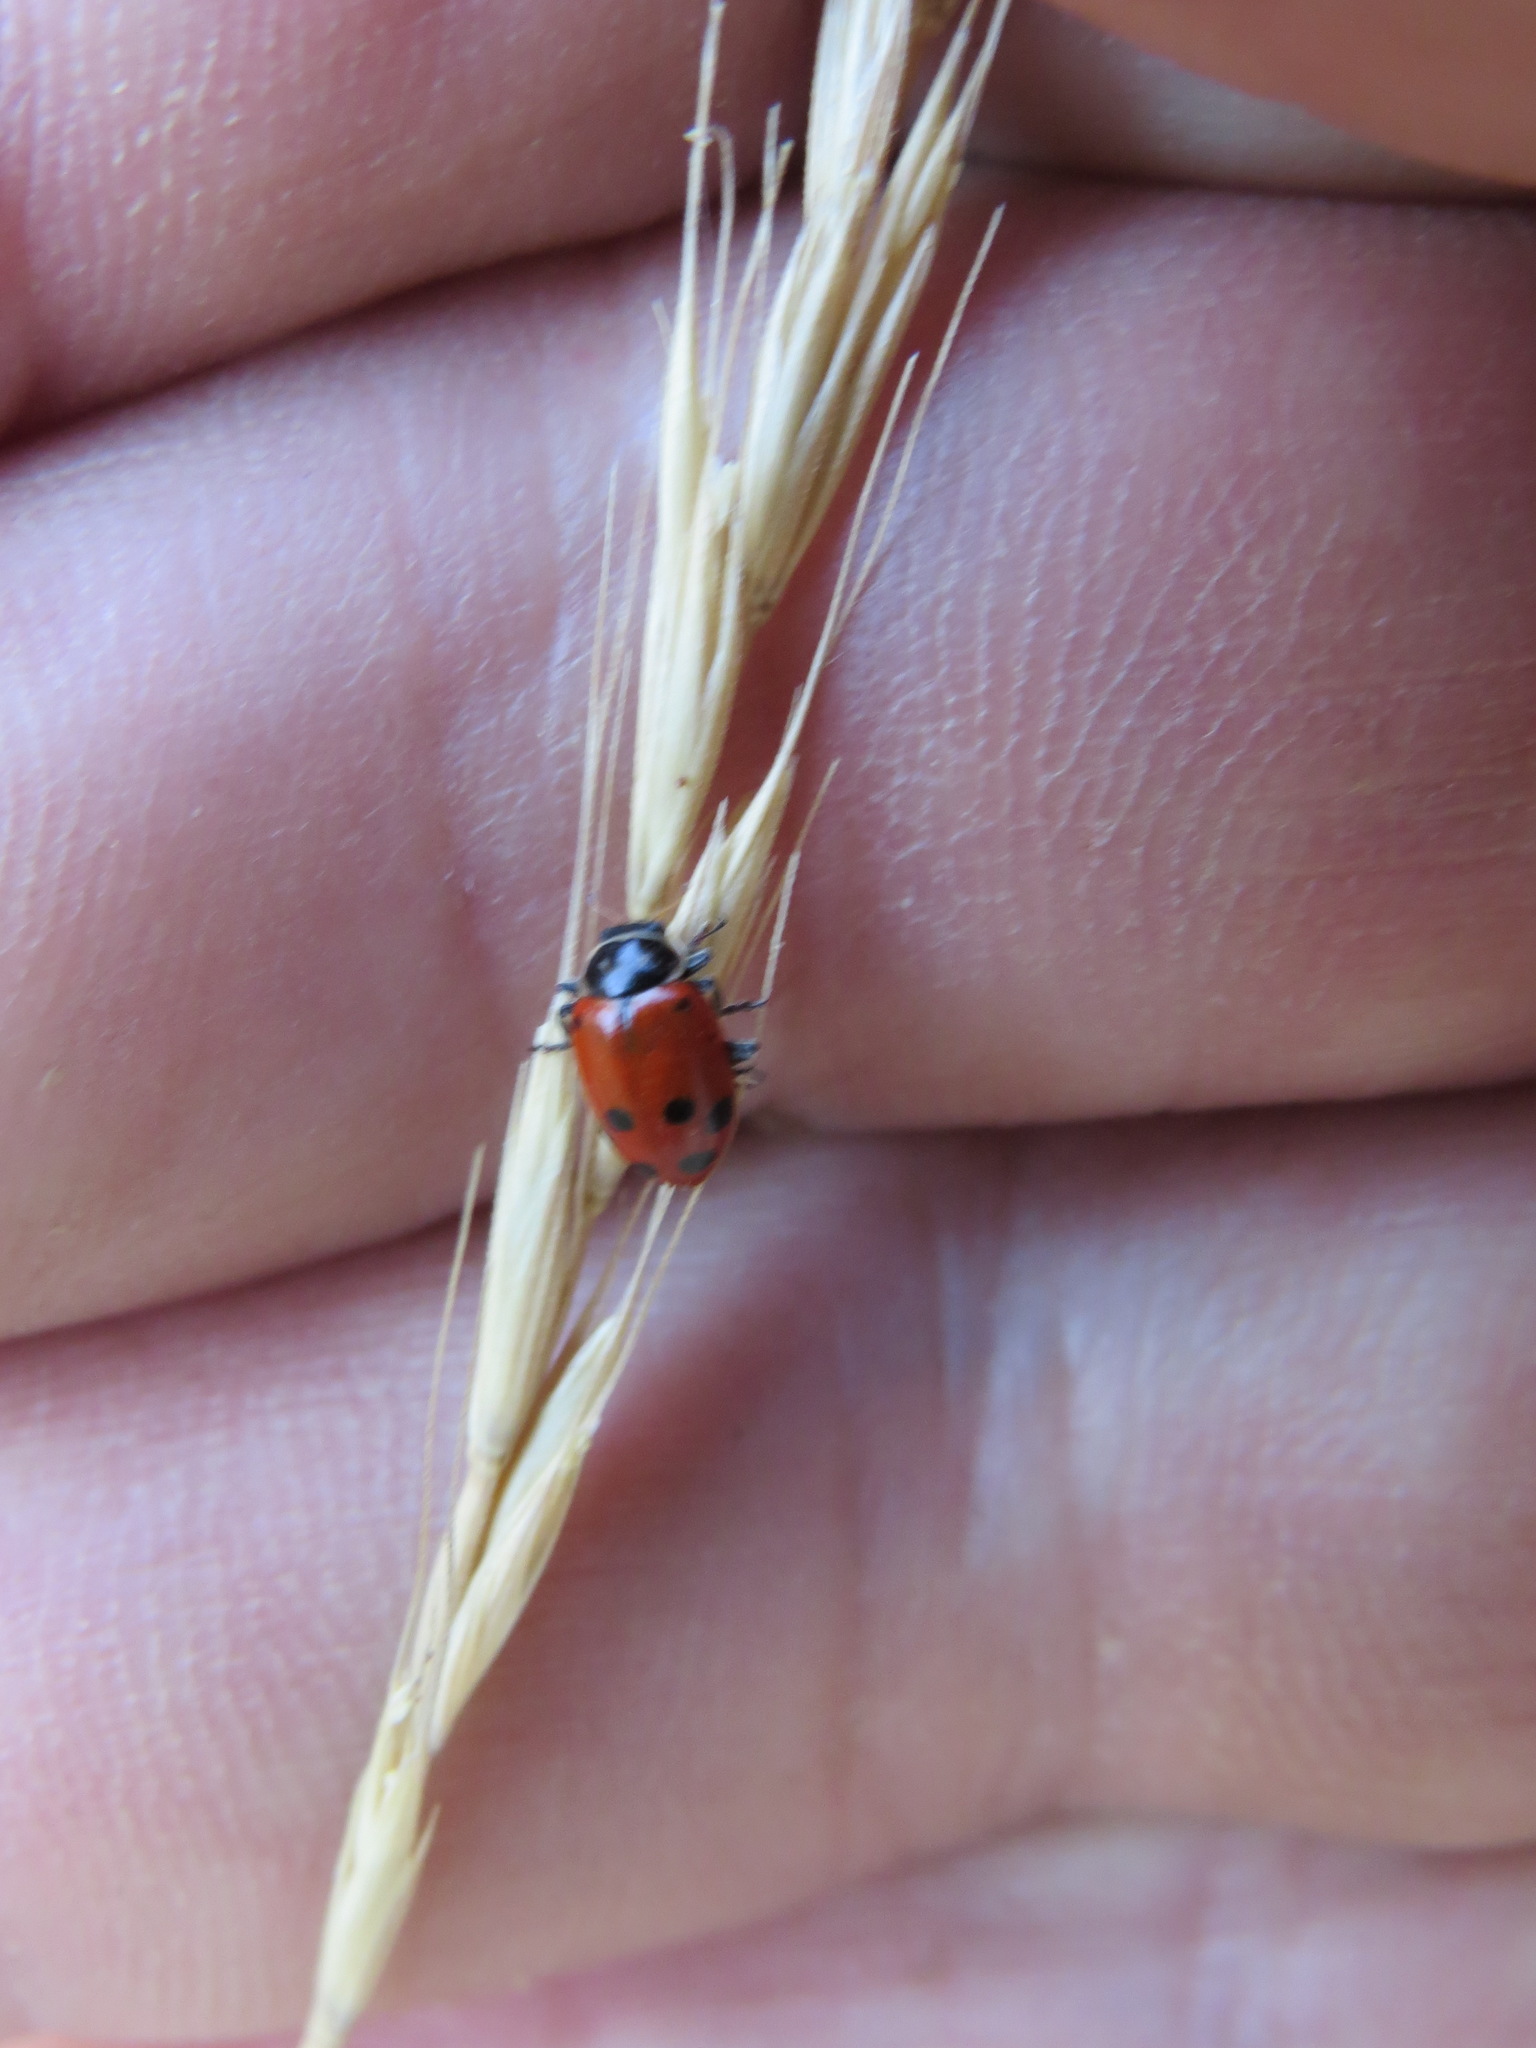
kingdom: Animalia
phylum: Arthropoda
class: Insecta
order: Coleoptera
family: Coccinellidae
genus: Hippodamia
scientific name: Hippodamia convergens
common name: Convergent lady beetle
